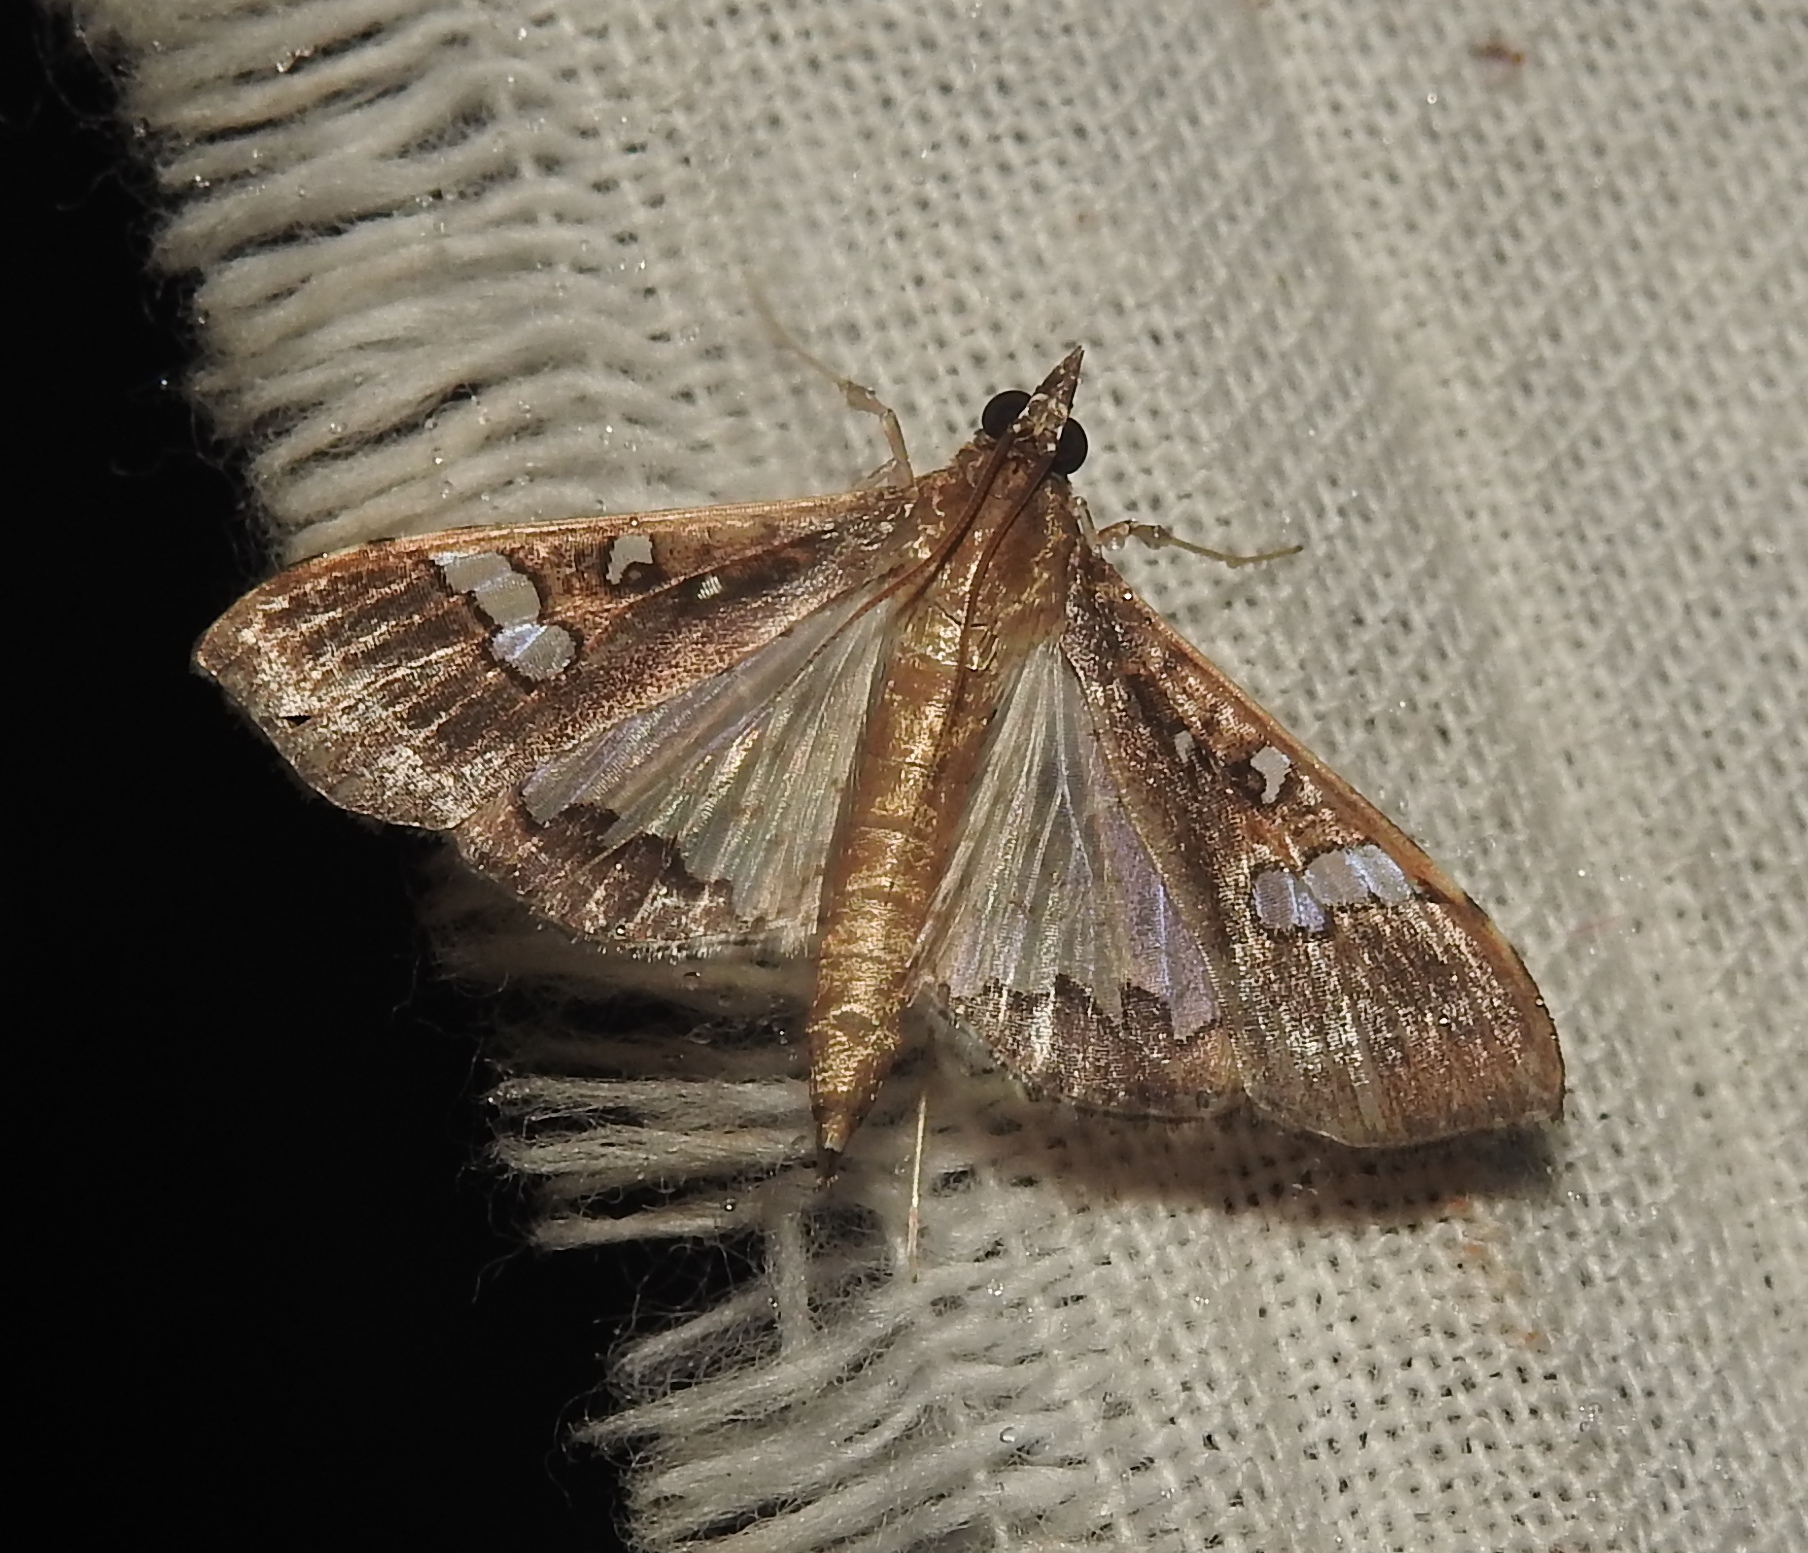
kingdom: Animalia
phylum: Arthropoda
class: Insecta
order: Lepidoptera
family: Crambidae
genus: Maruca
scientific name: Maruca vitrata
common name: Maruca pod borer
